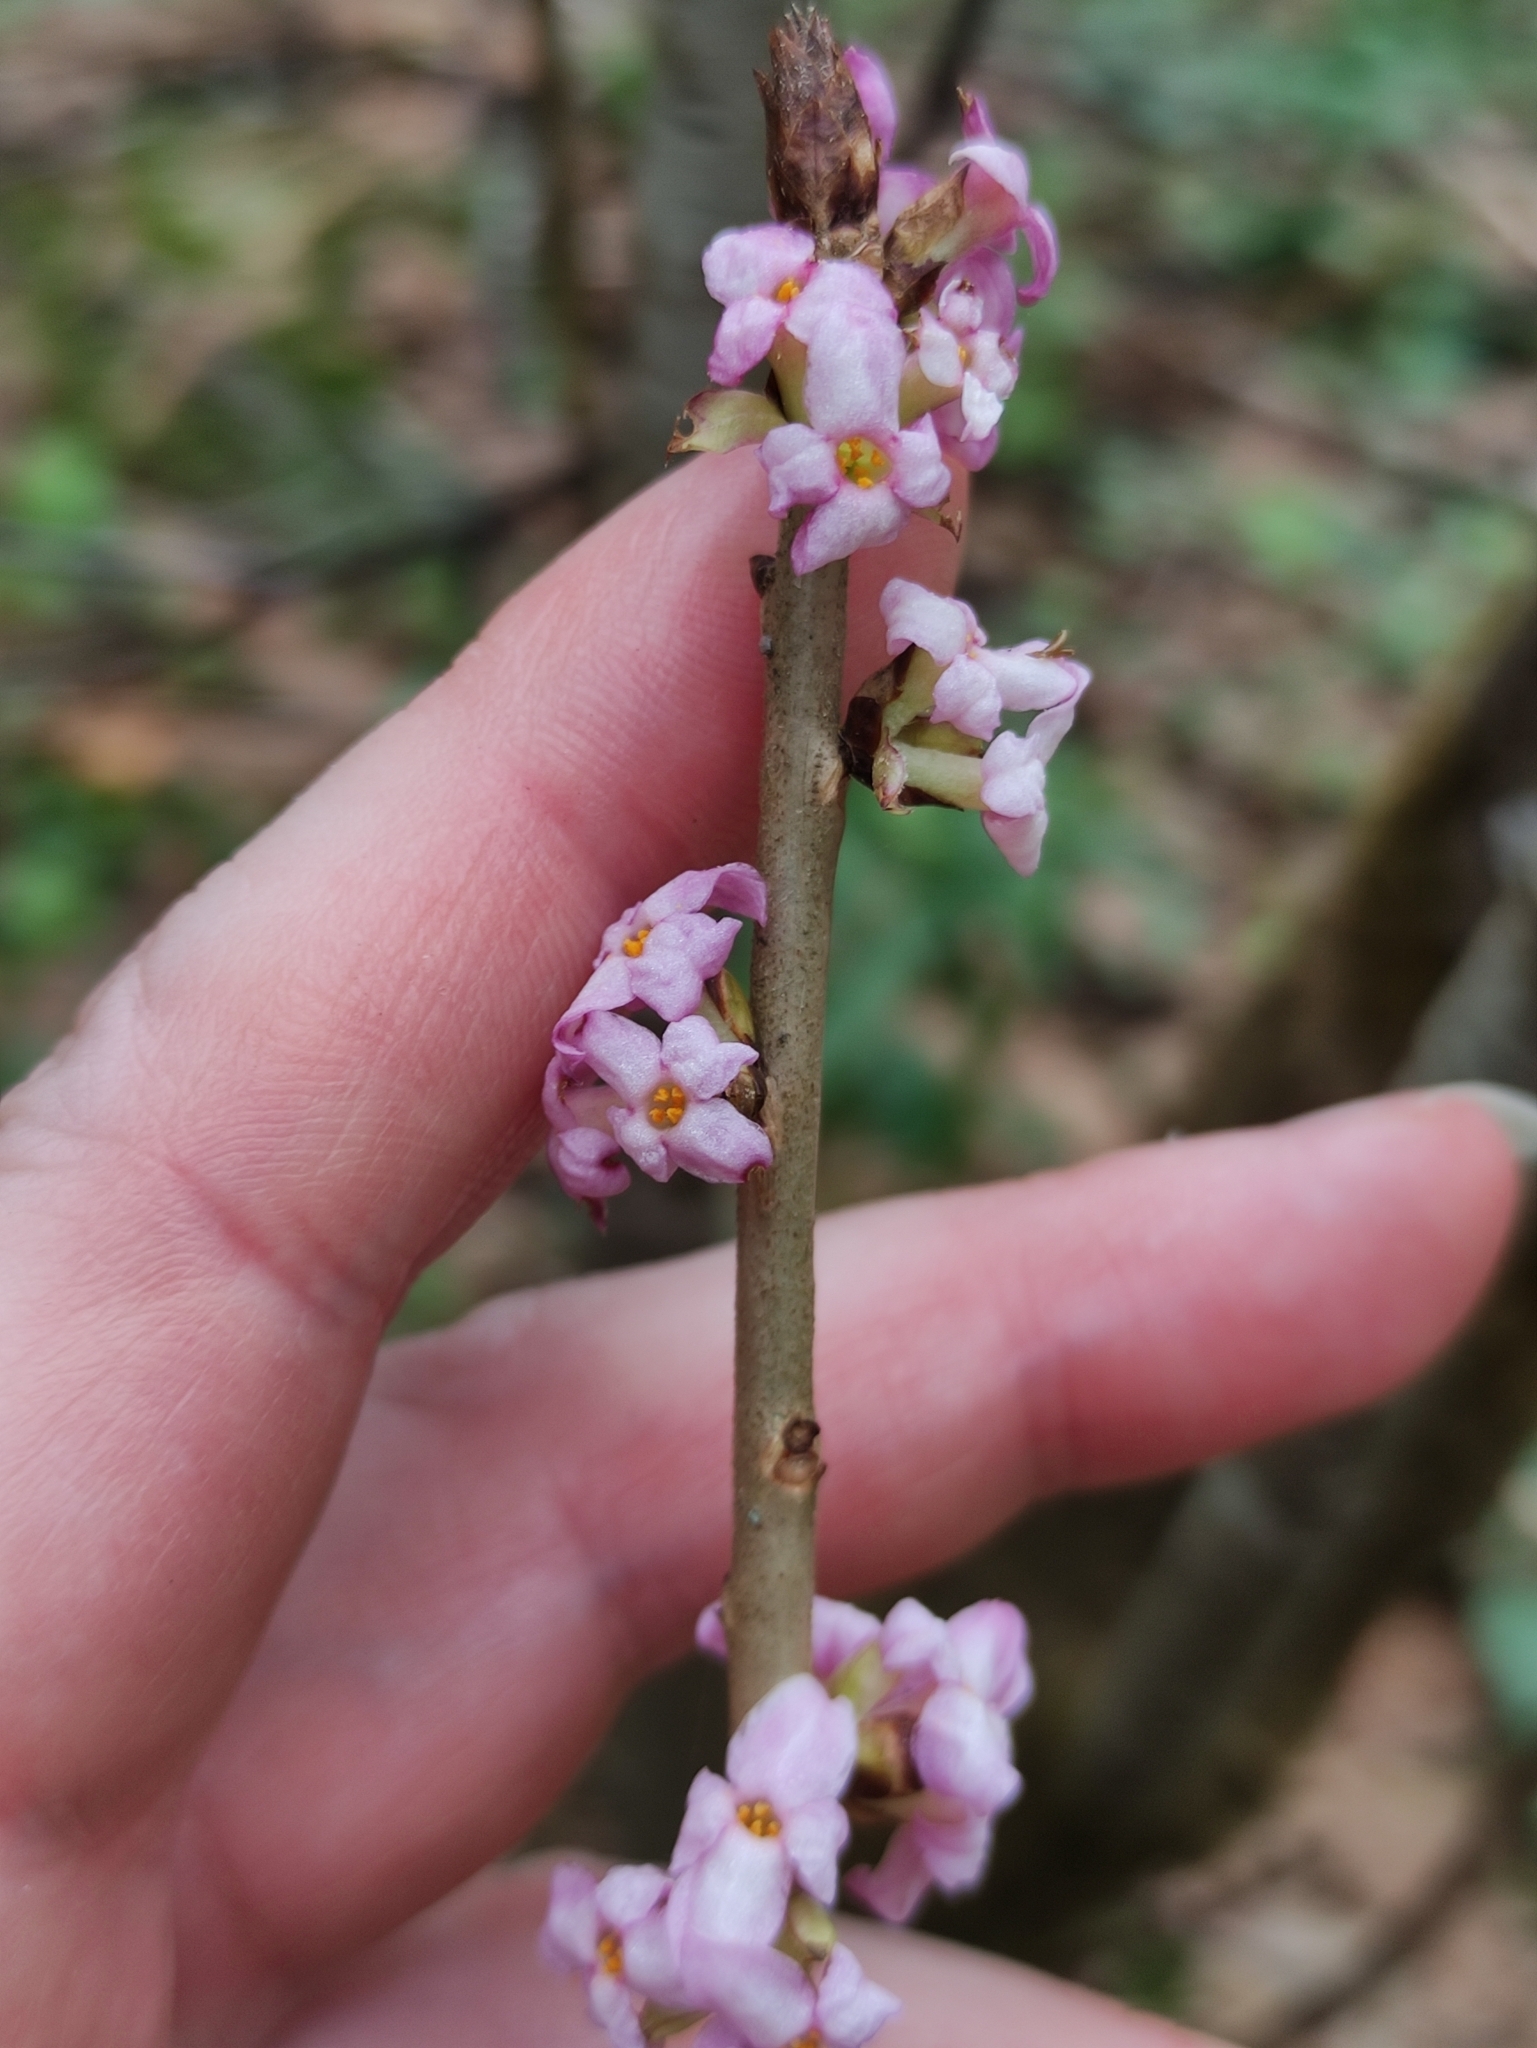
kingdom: Plantae
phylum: Tracheophyta
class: Magnoliopsida
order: Malvales
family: Thymelaeaceae
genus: Daphne
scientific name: Daphne mezereum
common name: Mezereon
